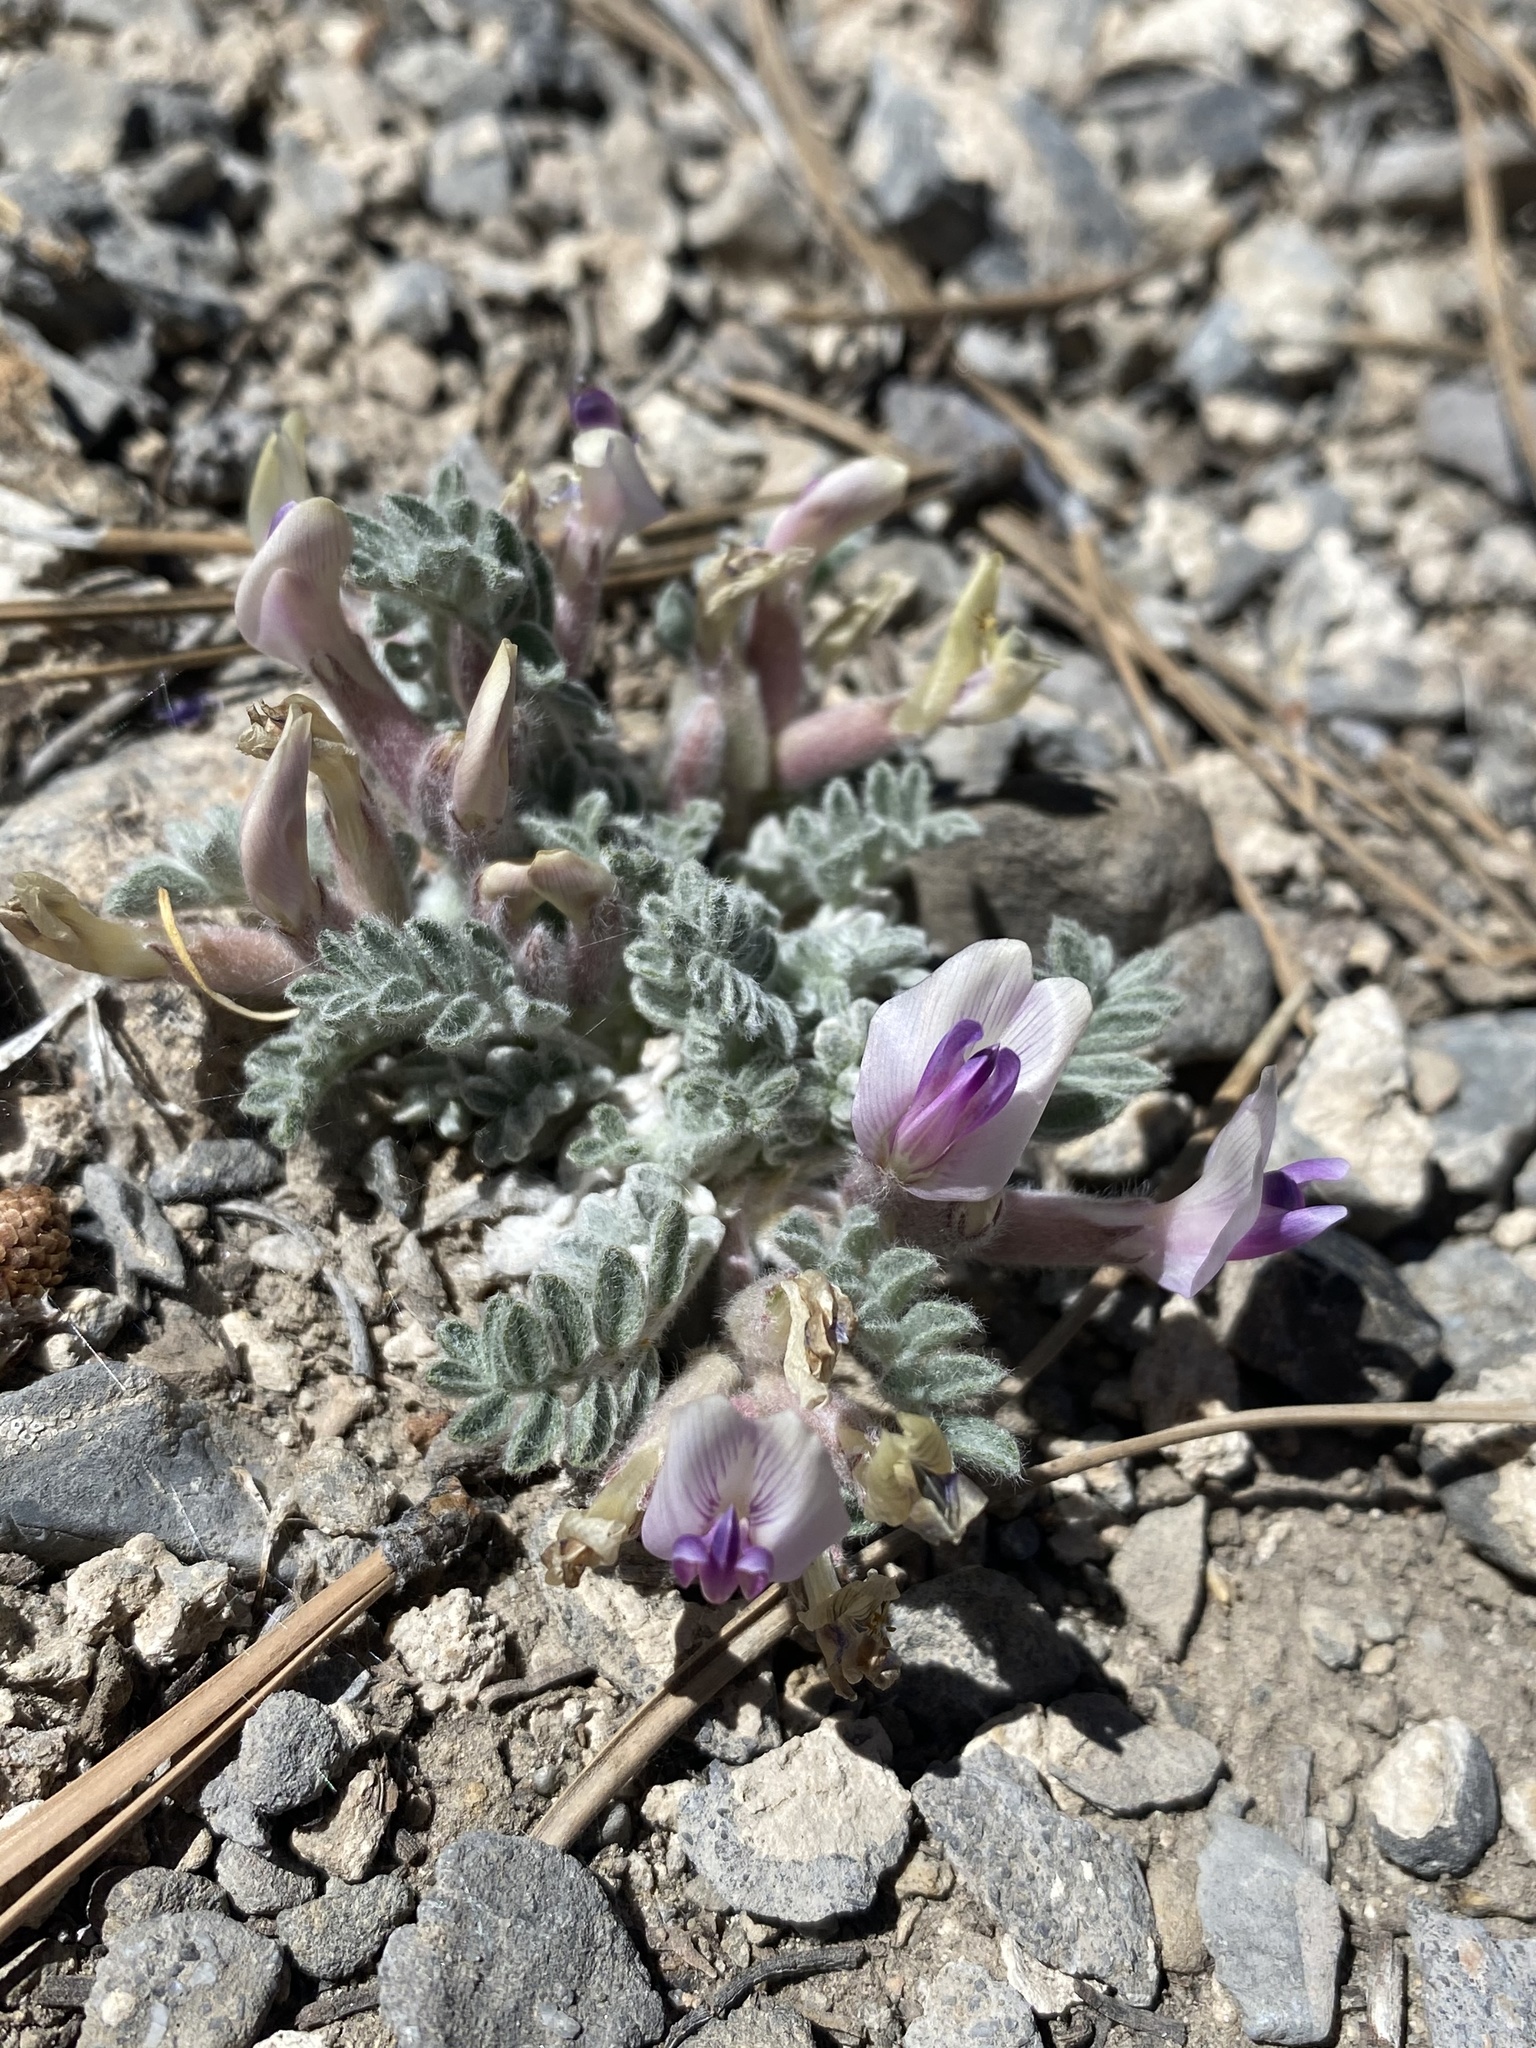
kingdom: Plantae
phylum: Tracheophyta
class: Magnoliopsida
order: Fabales
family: Fabaceae
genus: Astragalus
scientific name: Astragalus purshii
